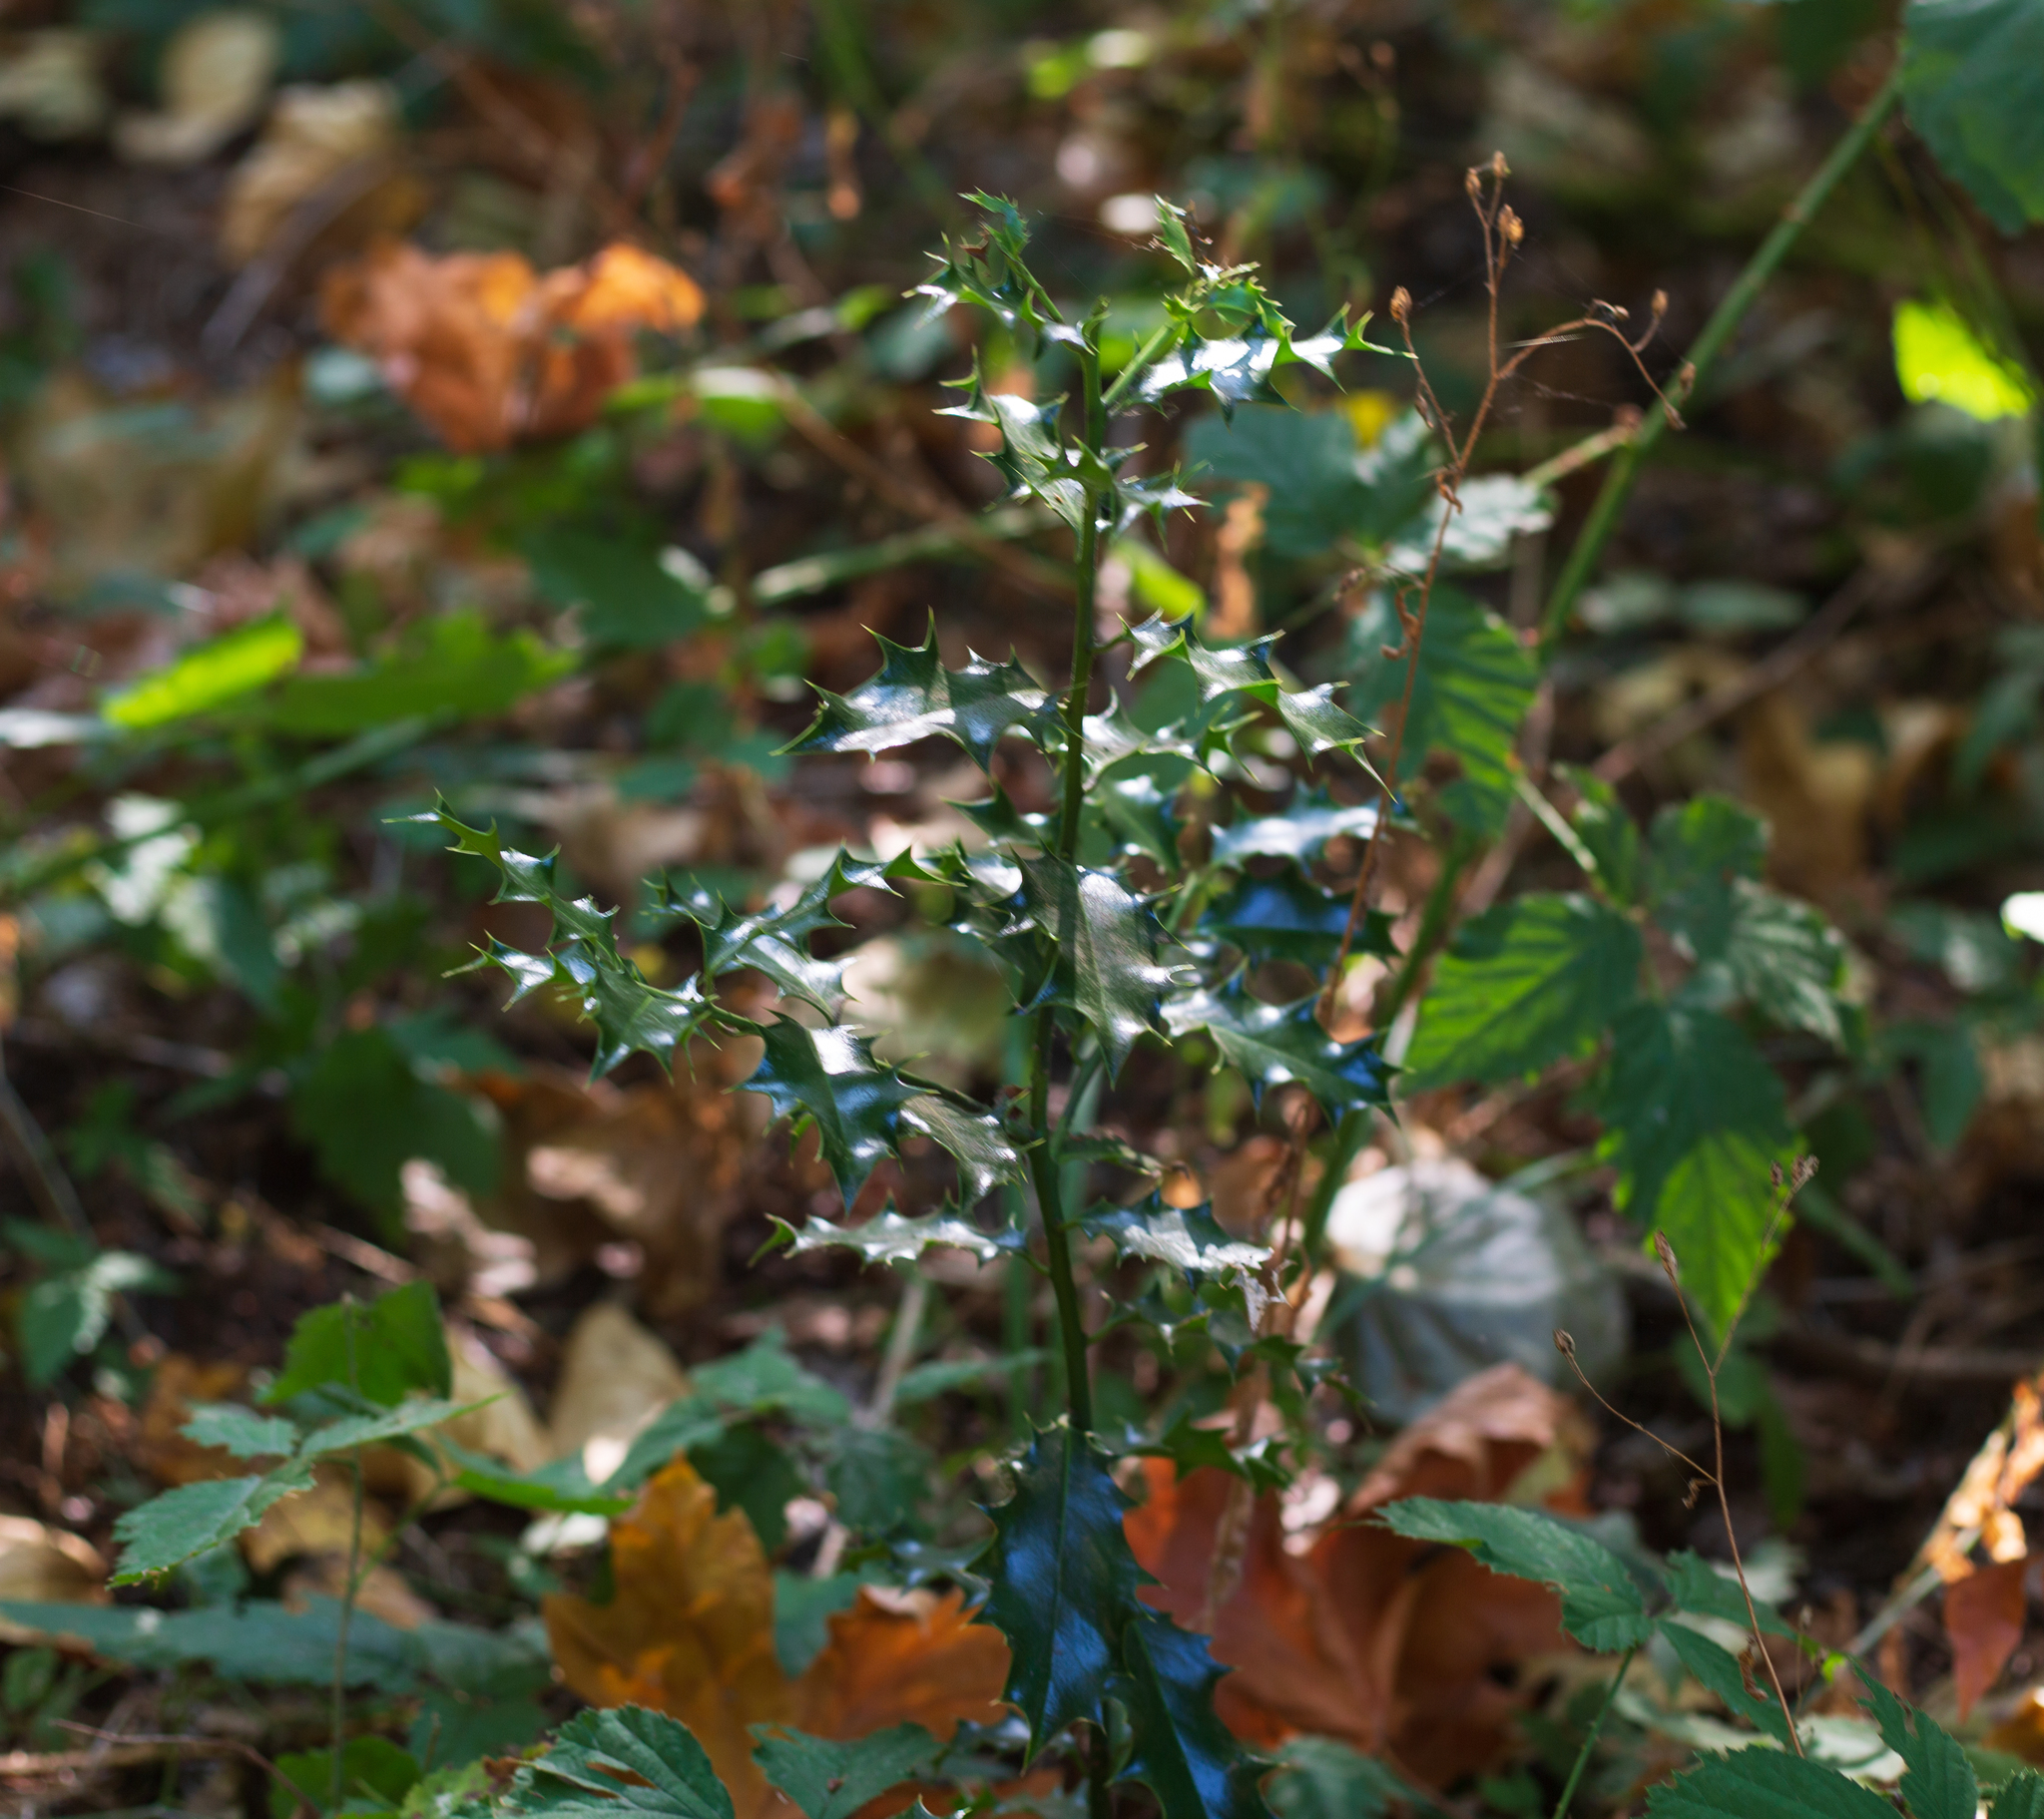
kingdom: Plantae
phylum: Tracheophyta
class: Magnoliopsida
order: Aquifoliales
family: Aquifoliaceae
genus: Ilex
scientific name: Ilex aquifolium
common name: English holly
